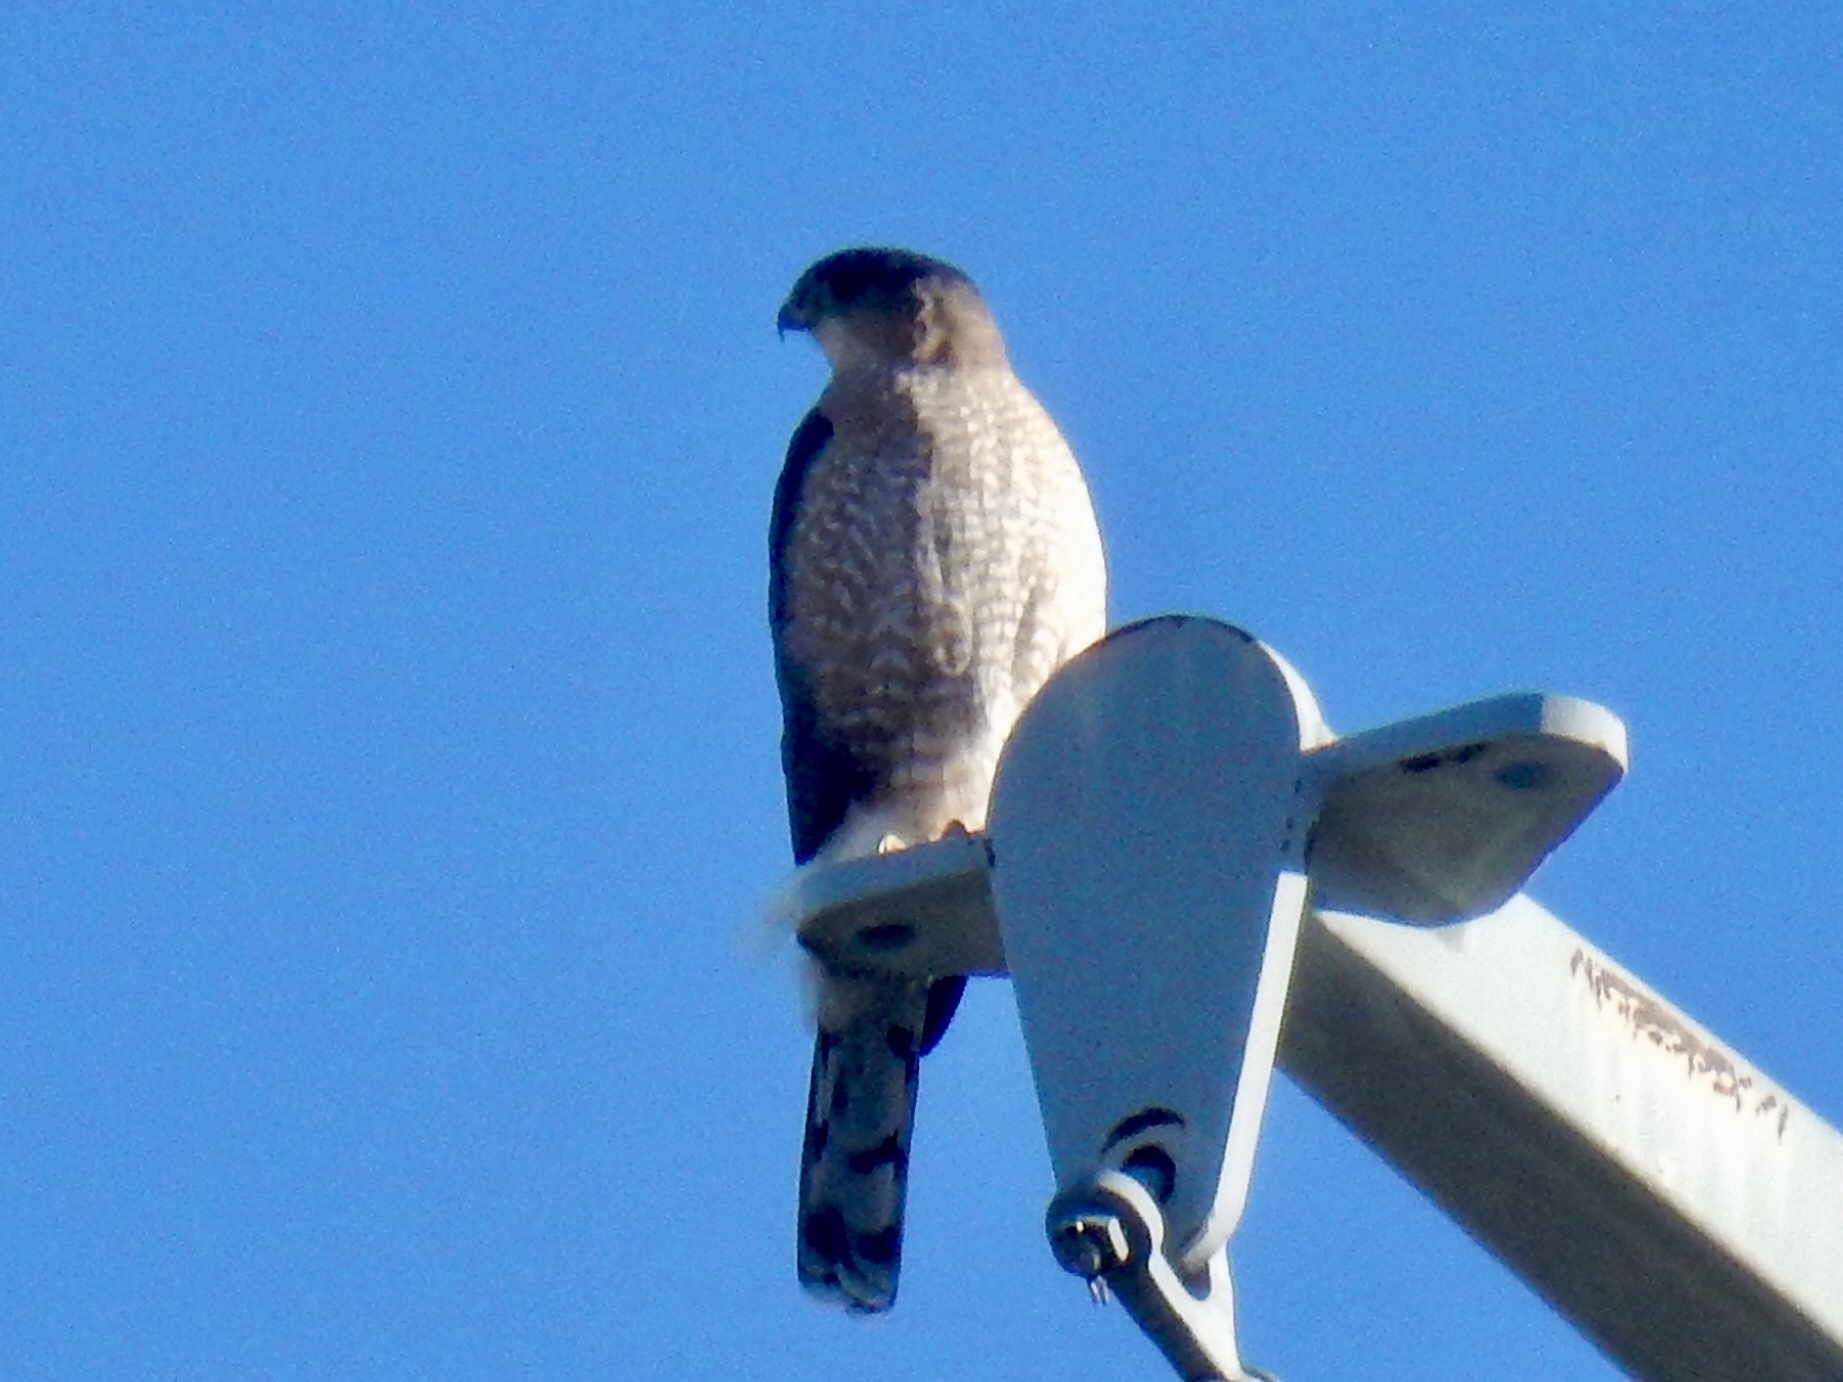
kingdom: Animalia
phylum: Chordata
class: Aves
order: Accipitriformes
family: Accipitridae
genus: Accipiter
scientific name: Accipiter cooperii
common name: Cooper's hawk
